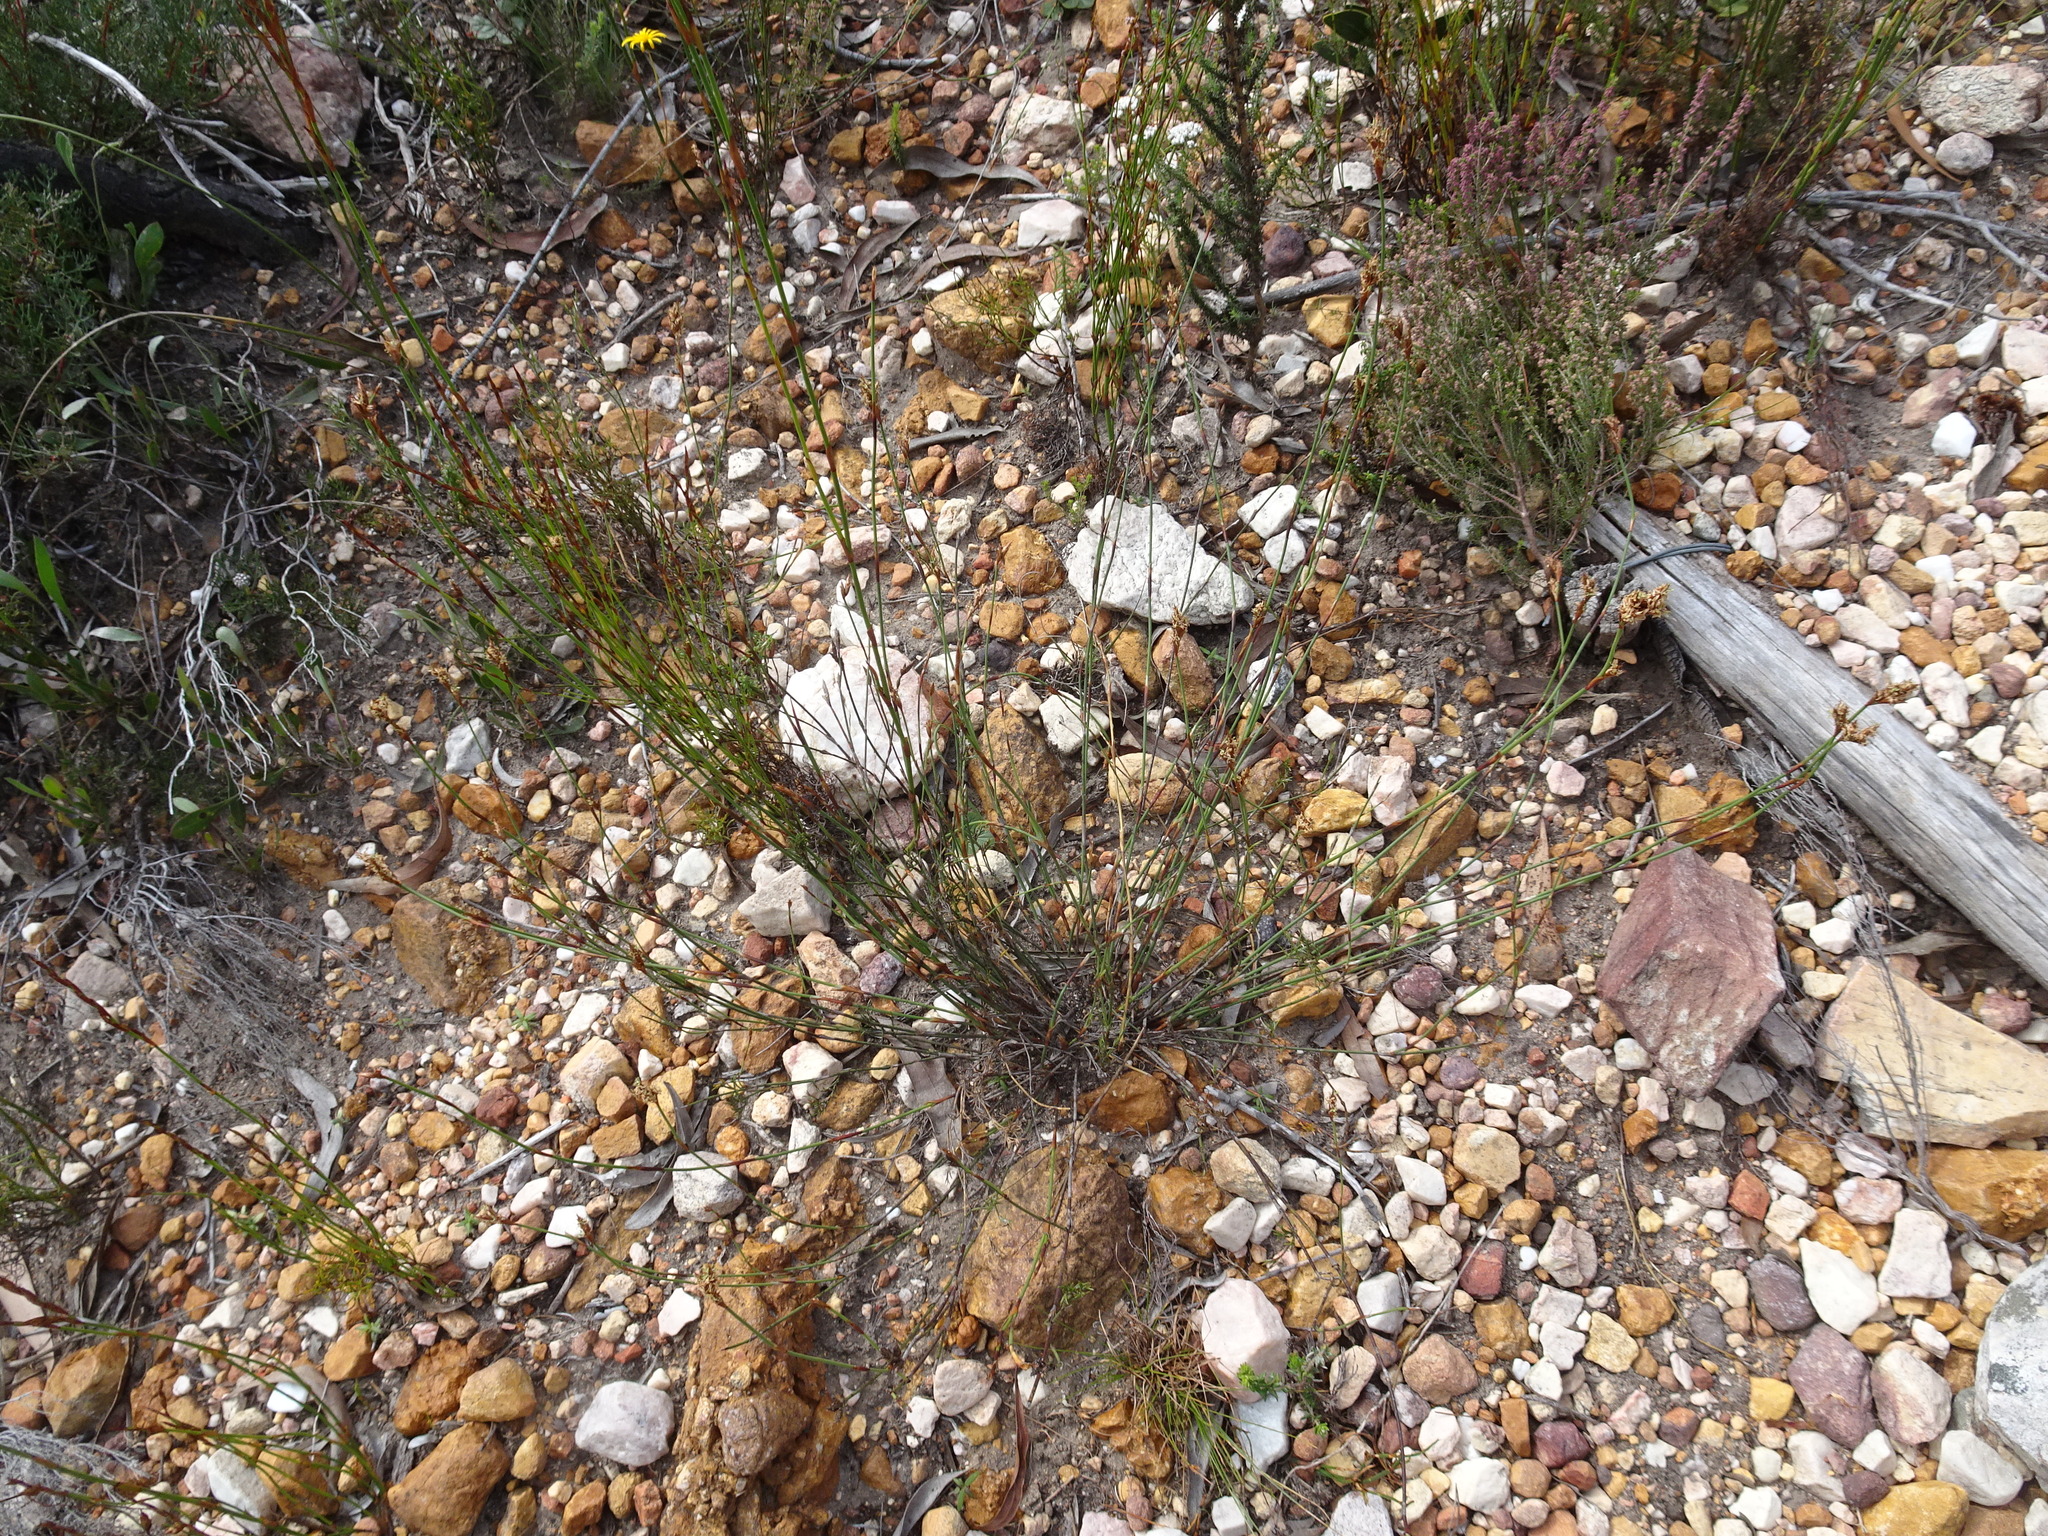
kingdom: Plantae
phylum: Tracheophyta
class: Liliopsida
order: Poales
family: Restionaceae
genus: Restio
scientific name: Restio capensis
